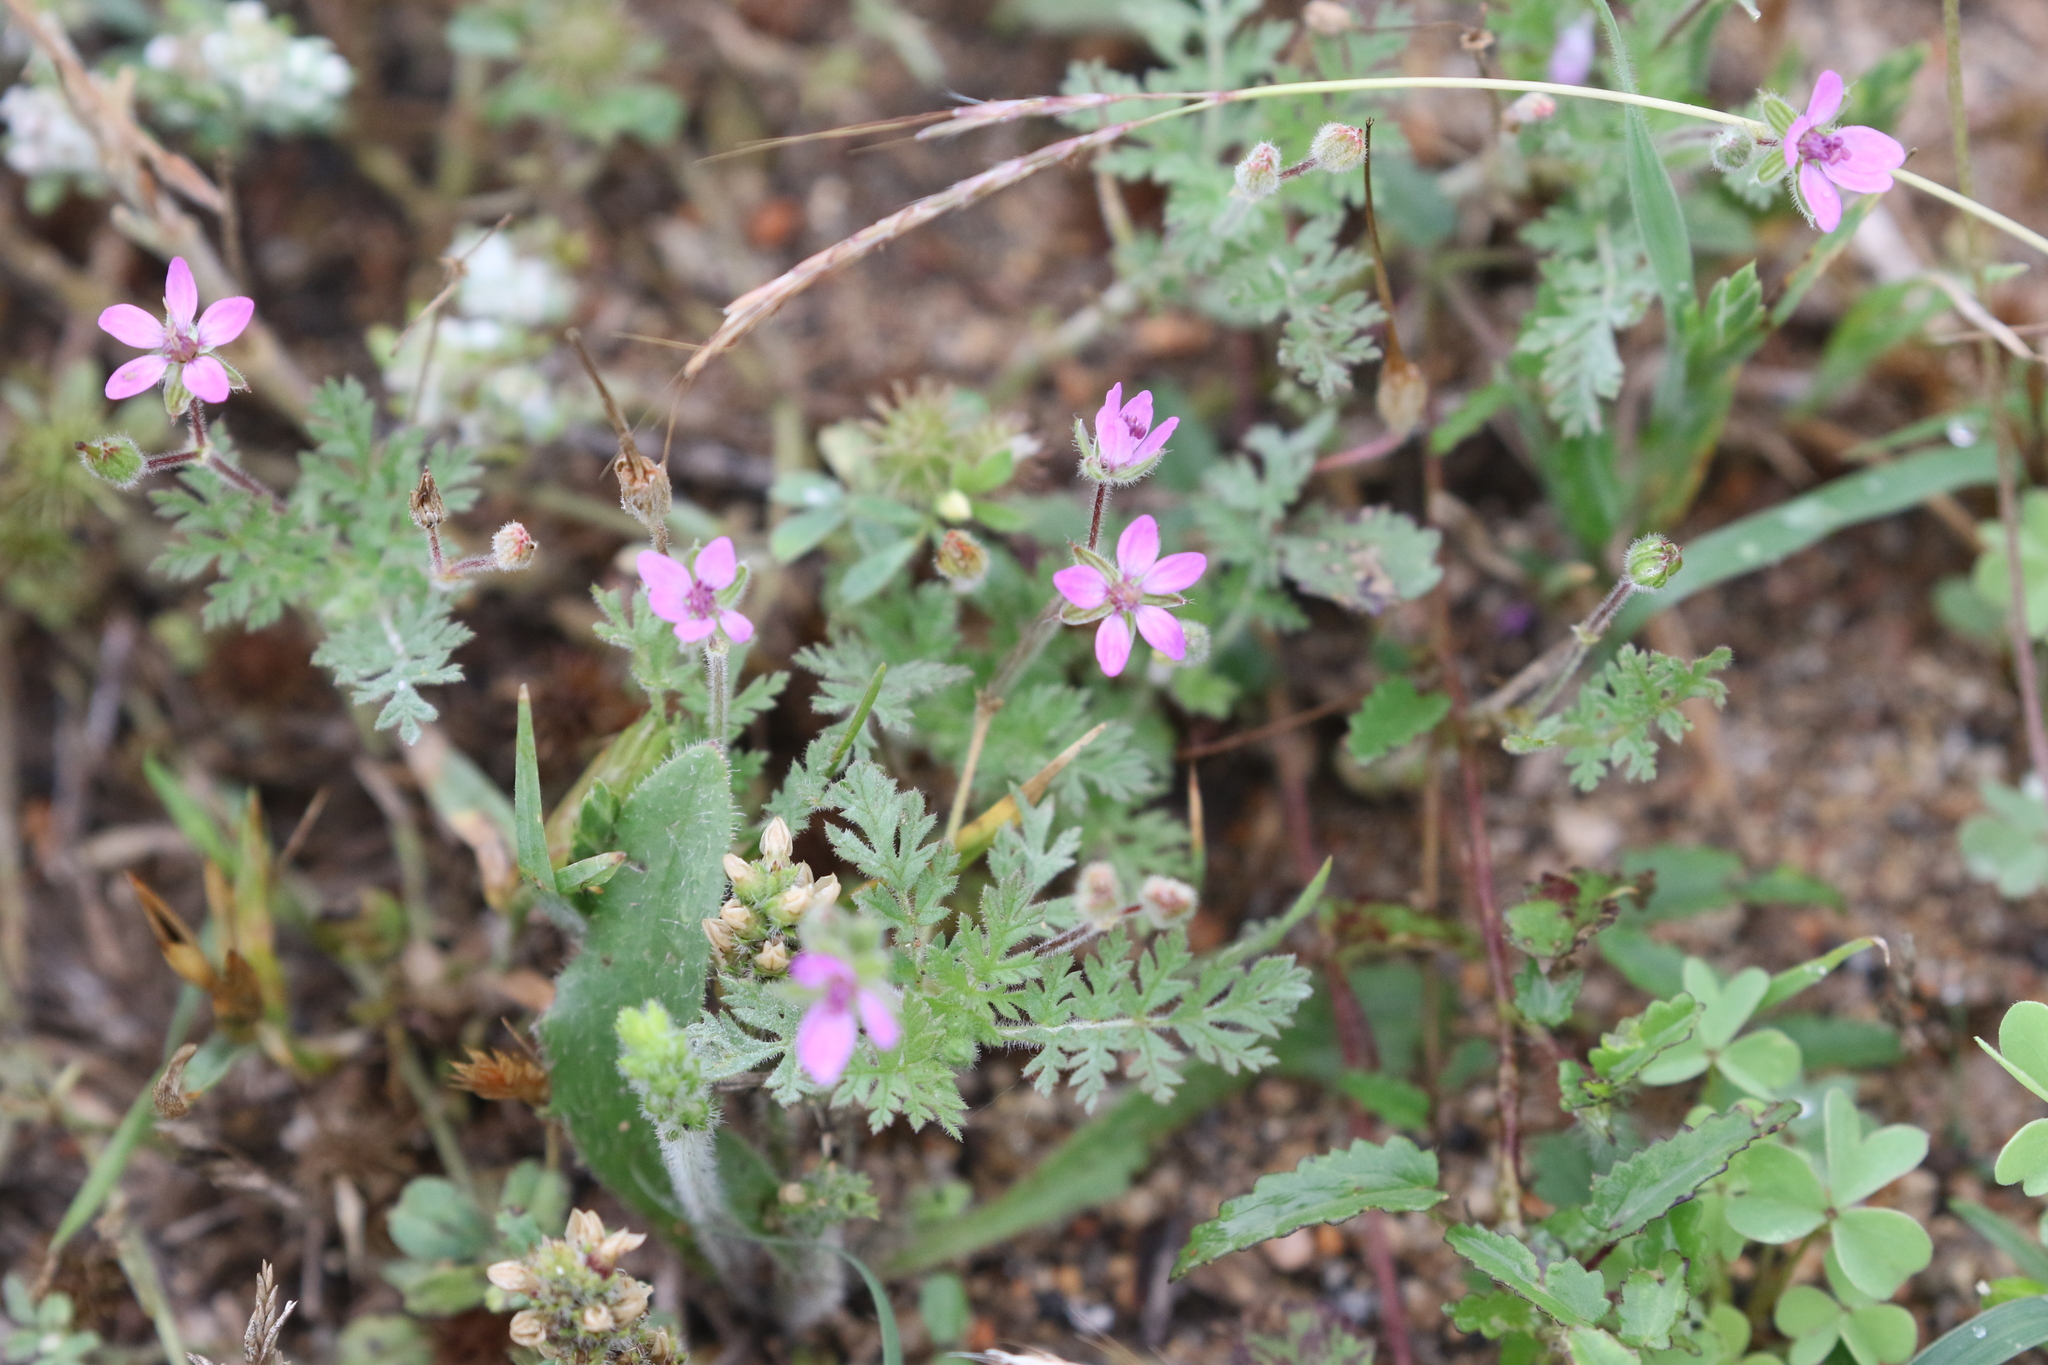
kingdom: Plantae
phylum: Tracheophyta
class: Magnoliopsida
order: Geraniales
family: Geraniaceae
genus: Erodium
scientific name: Erodium cicutarium
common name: Common stork's-bill
